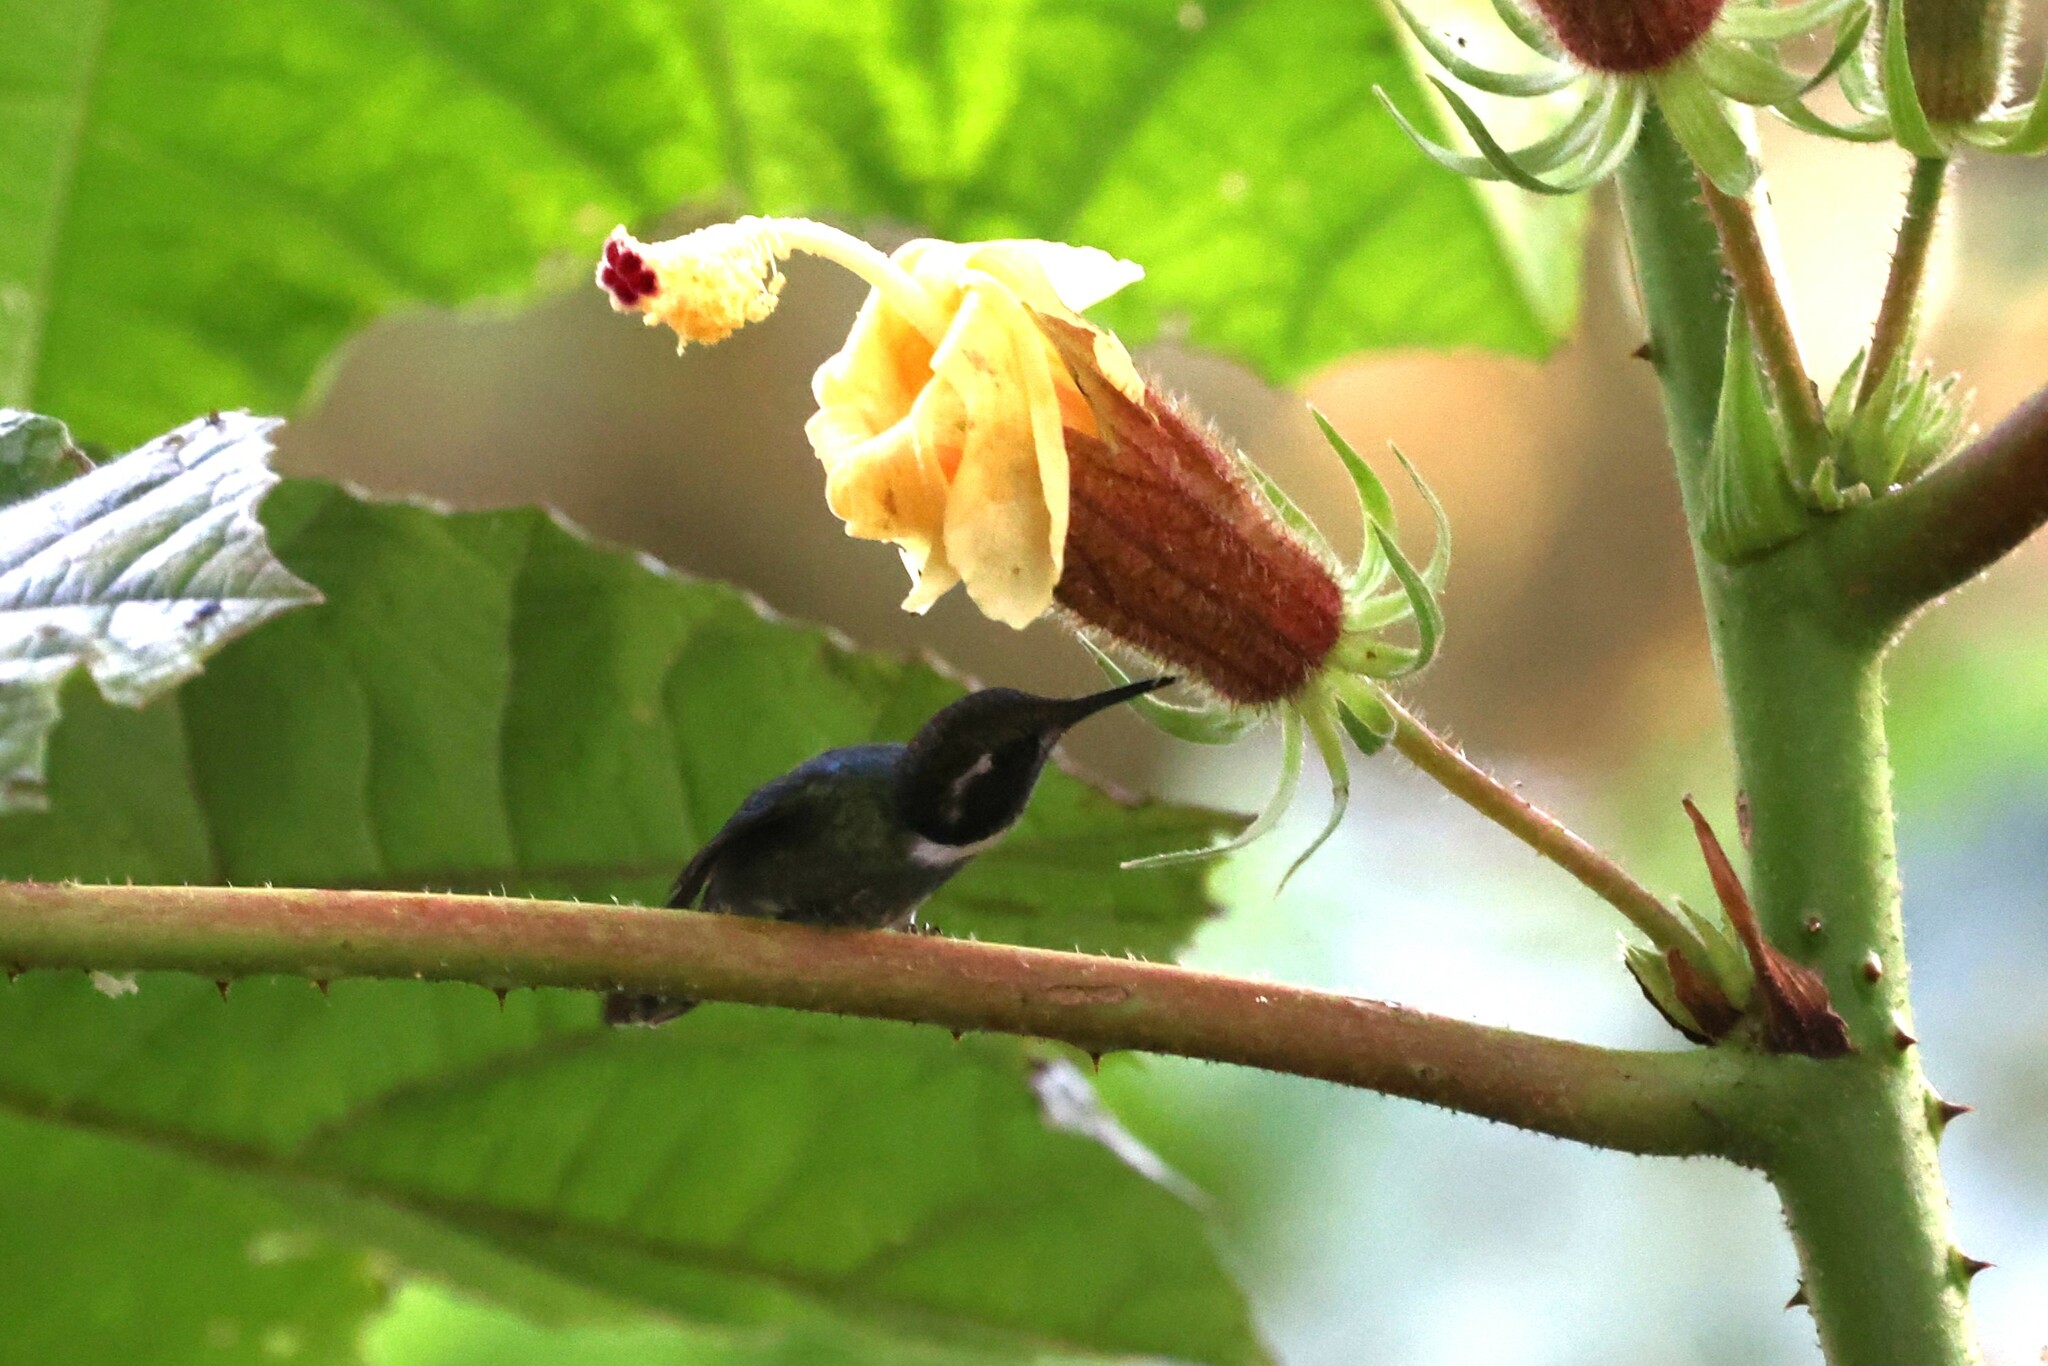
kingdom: Animalia
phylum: Chordata
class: Aves
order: Apodiformes
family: Trochilidae
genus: Schistes
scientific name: Schistes geoffroyi
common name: Wedge-billed hummingbird
